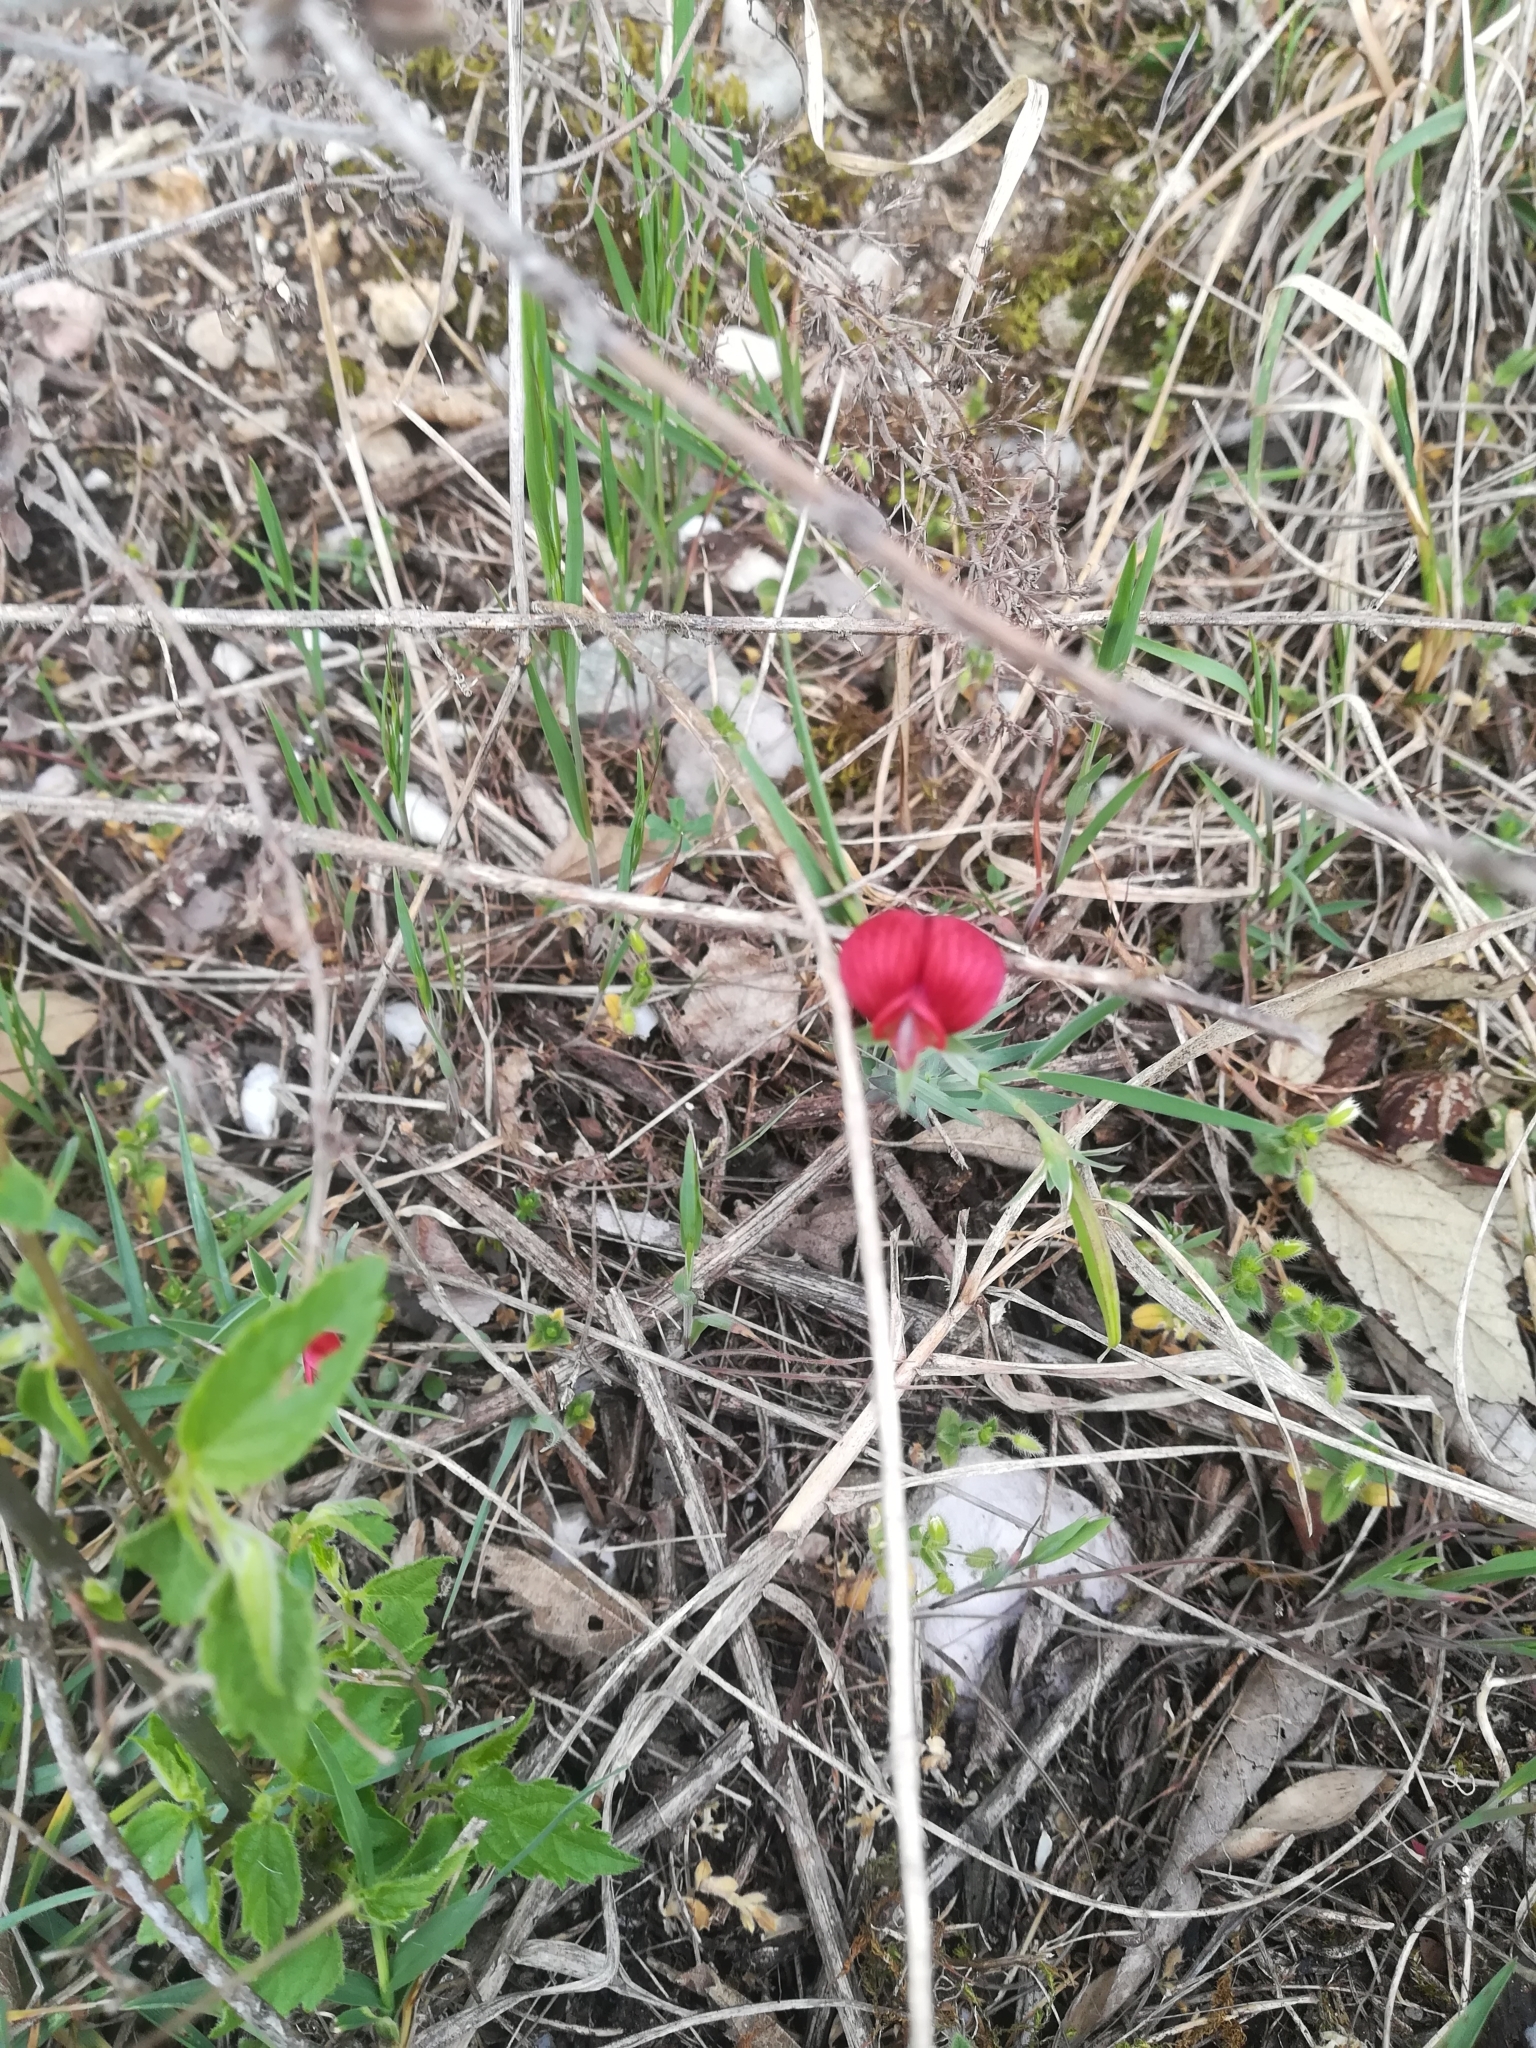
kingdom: Plantae
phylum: Tracheophyta
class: Magnoliopsida
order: Fabales
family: Fabaceae
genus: Lathyrus
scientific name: Lathyrus cicera
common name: Red vetchling
